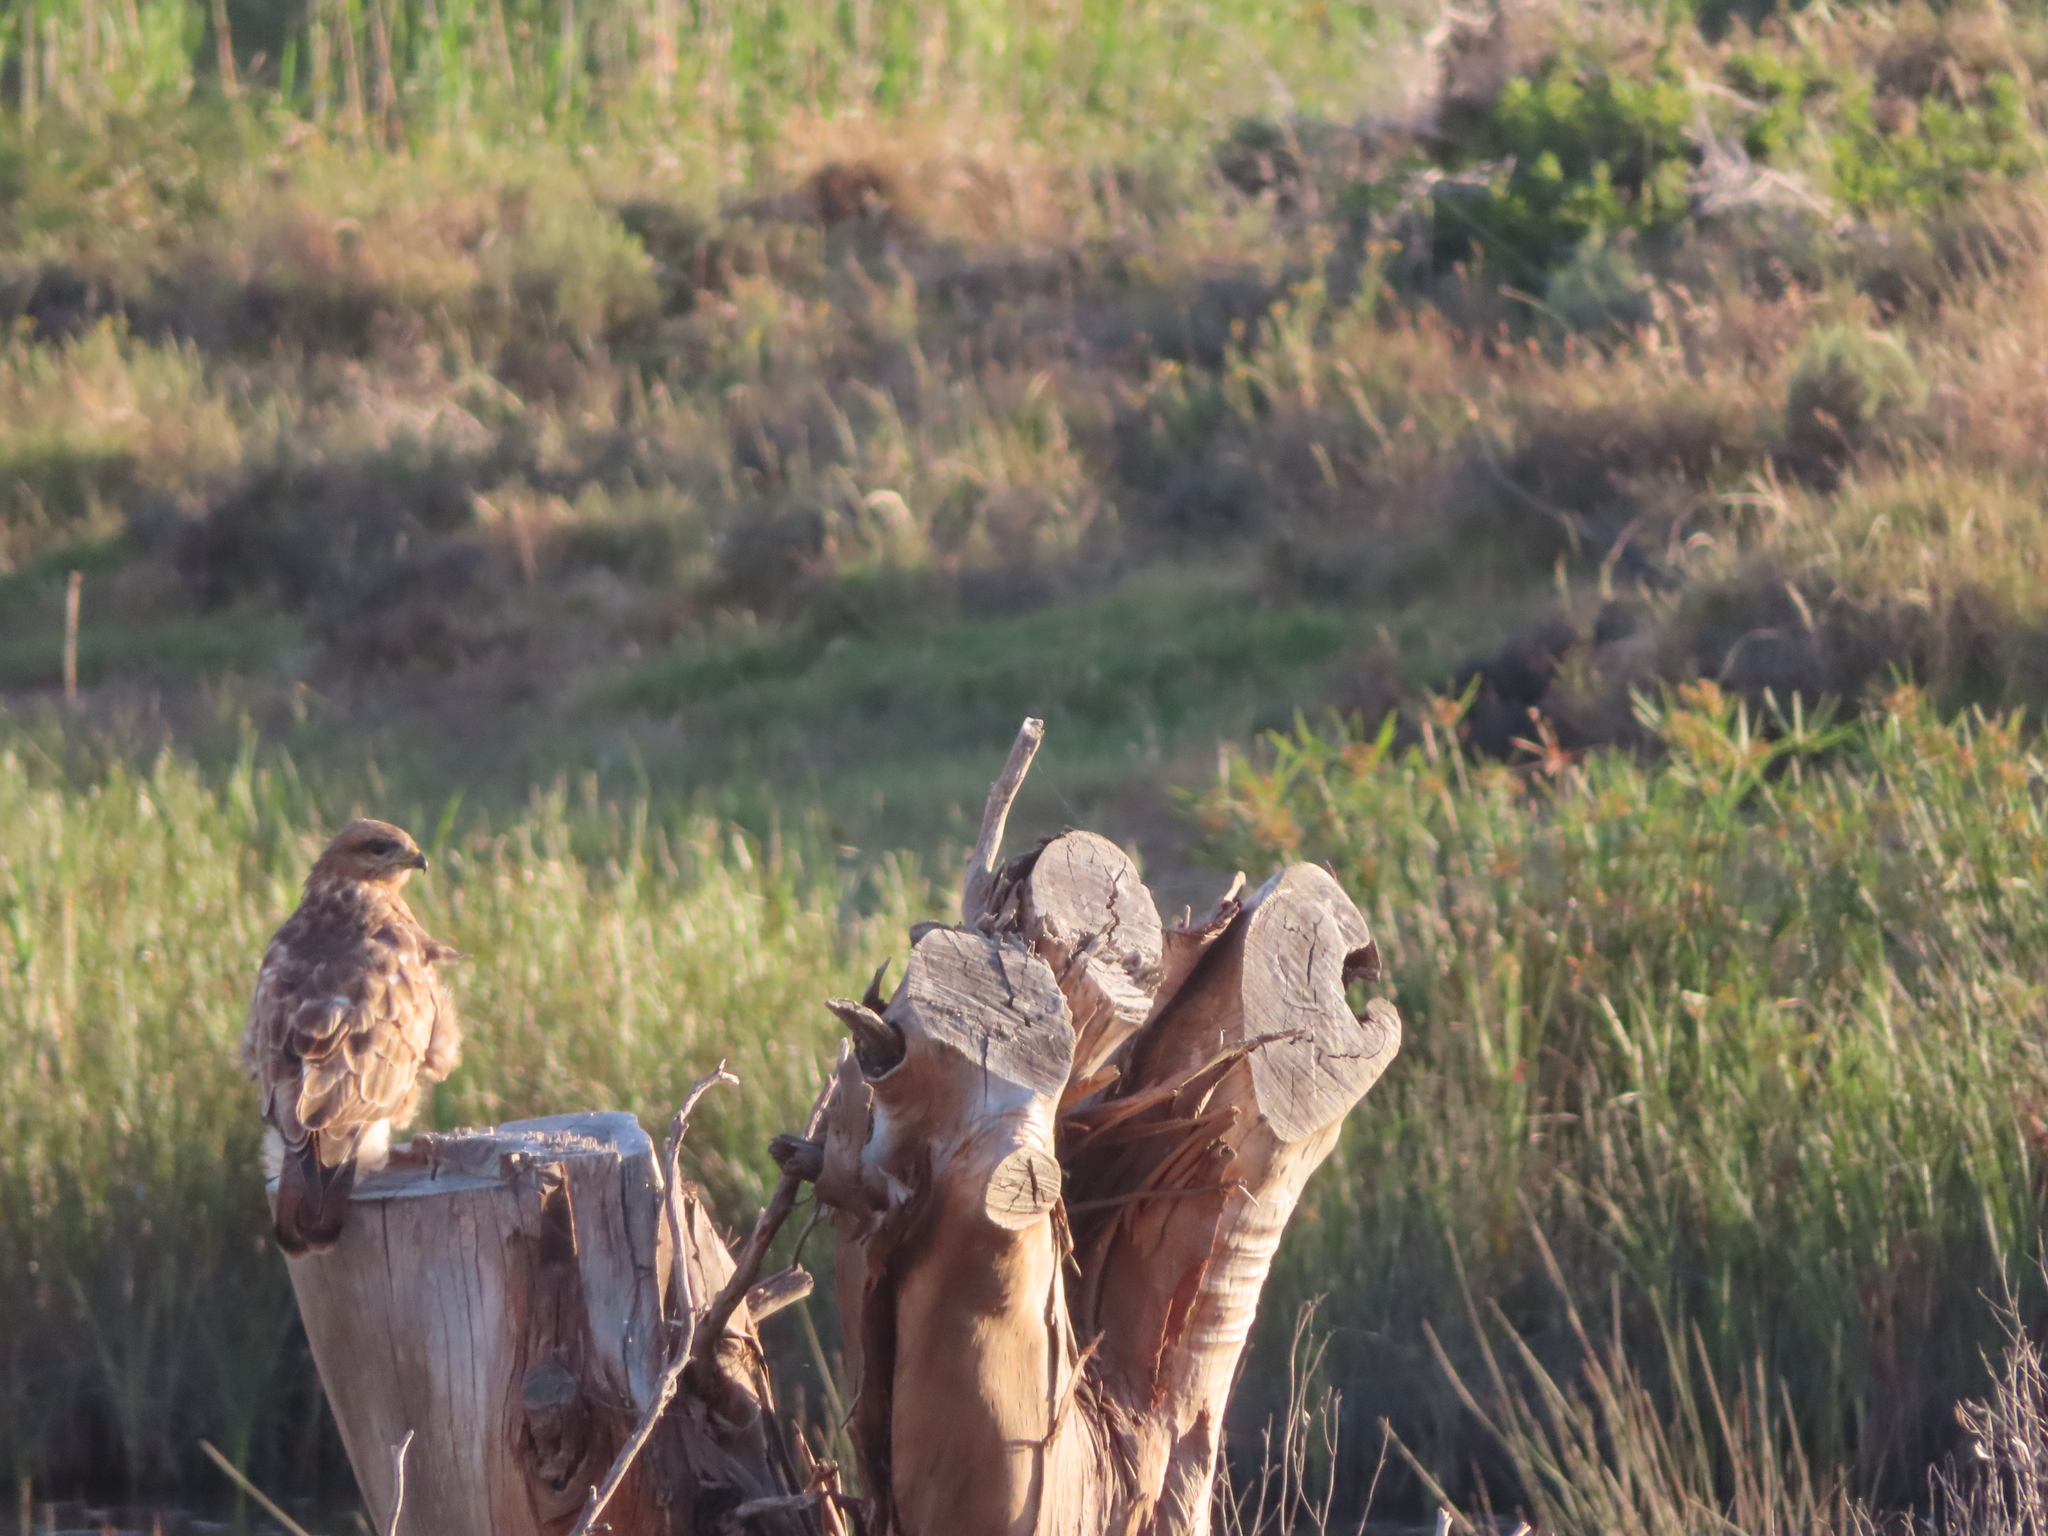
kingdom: Animalia
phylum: Chordata
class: Aves
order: Accipitriformes
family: Accipitridae
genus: Buteo
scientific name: Buteo buteo
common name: Common buzzard
